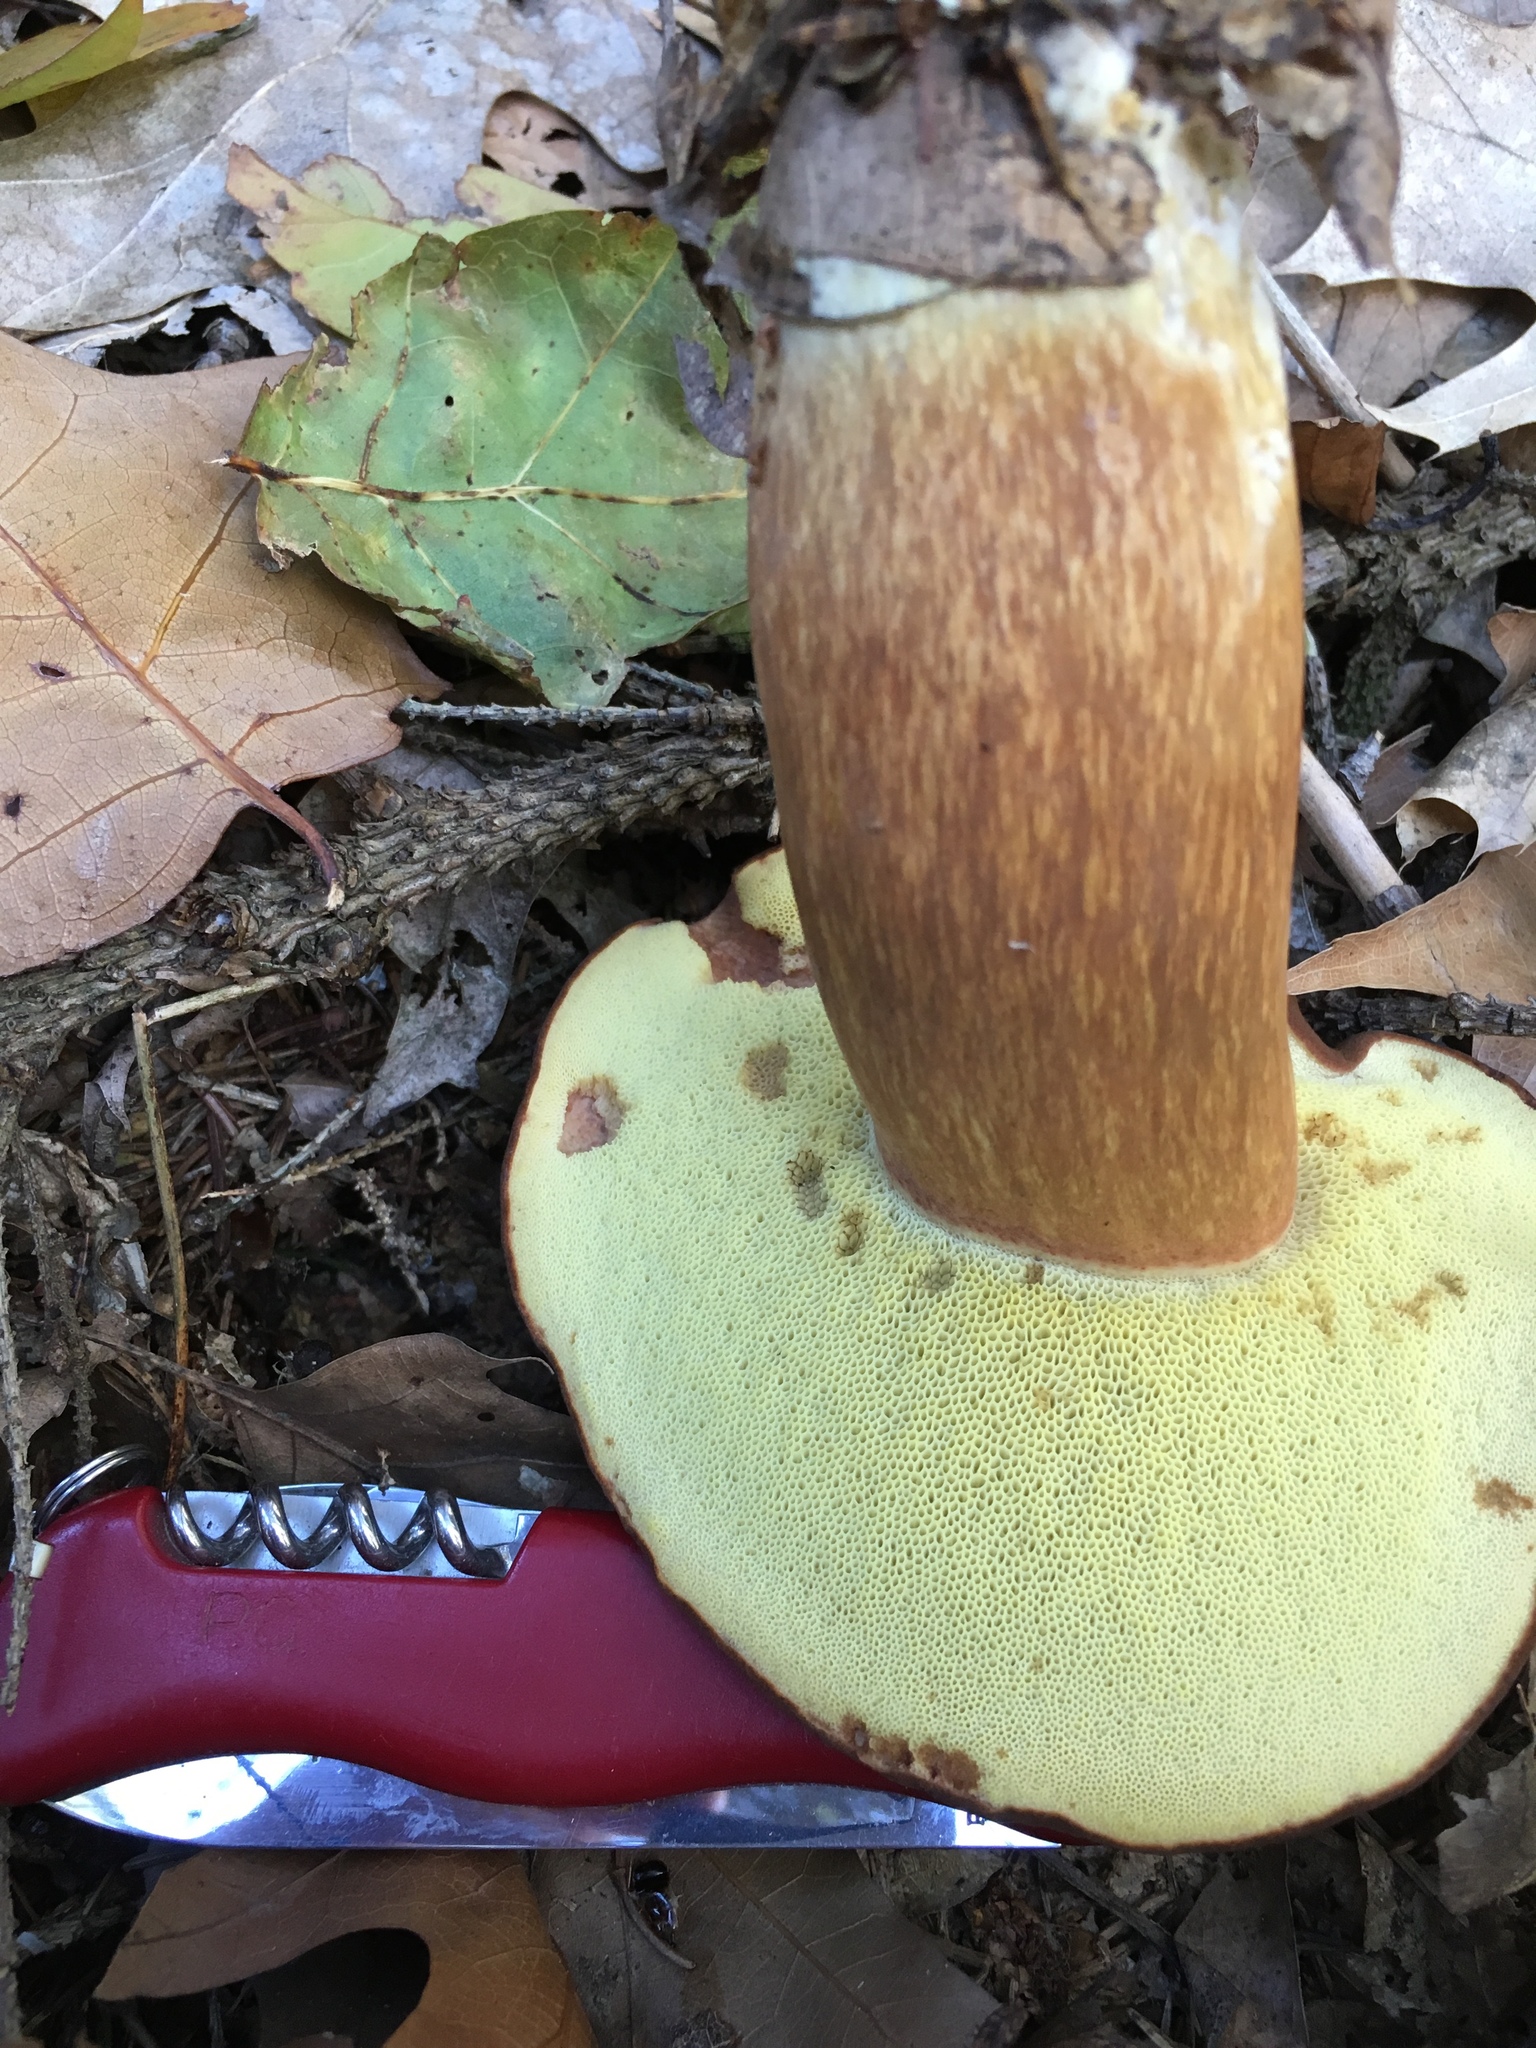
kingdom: Fungi
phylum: Basidiomycota
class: Agaricomycetes
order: Boletales
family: Boletaceae
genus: Imleria
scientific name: Imleria badia
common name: Bay bolete
